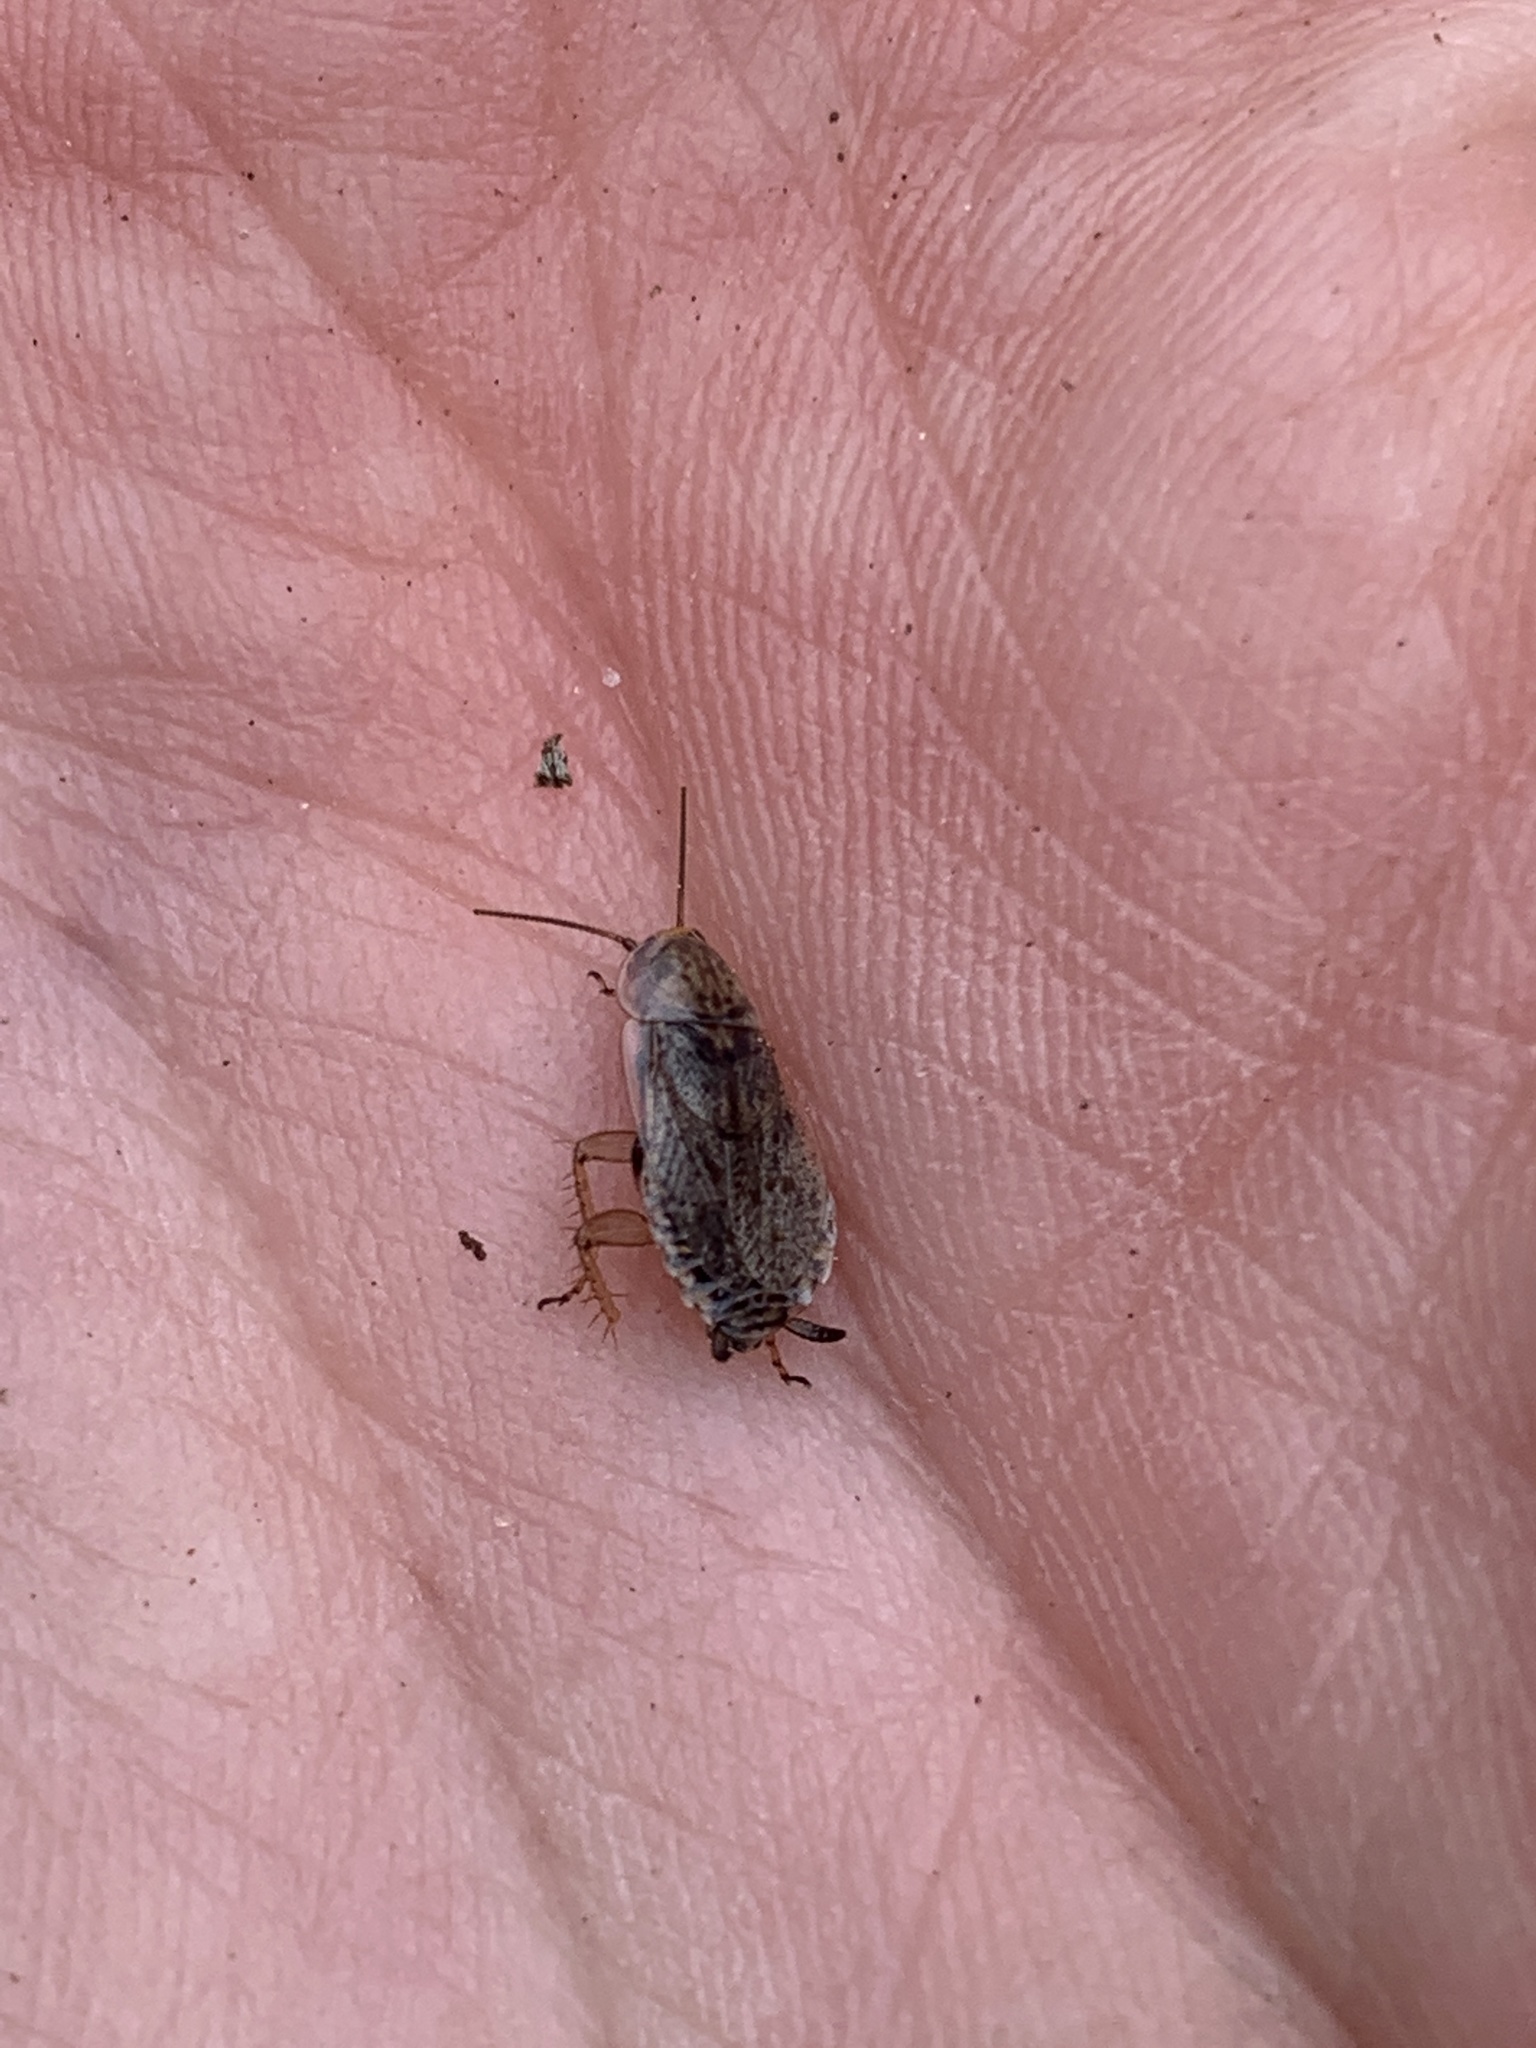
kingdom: Animalia
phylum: Arthropoda
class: Insecta
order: Blattodea
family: Ectobiidae
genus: Ectobius
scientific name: Ectobius lapponicus
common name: Dusky cockroach
